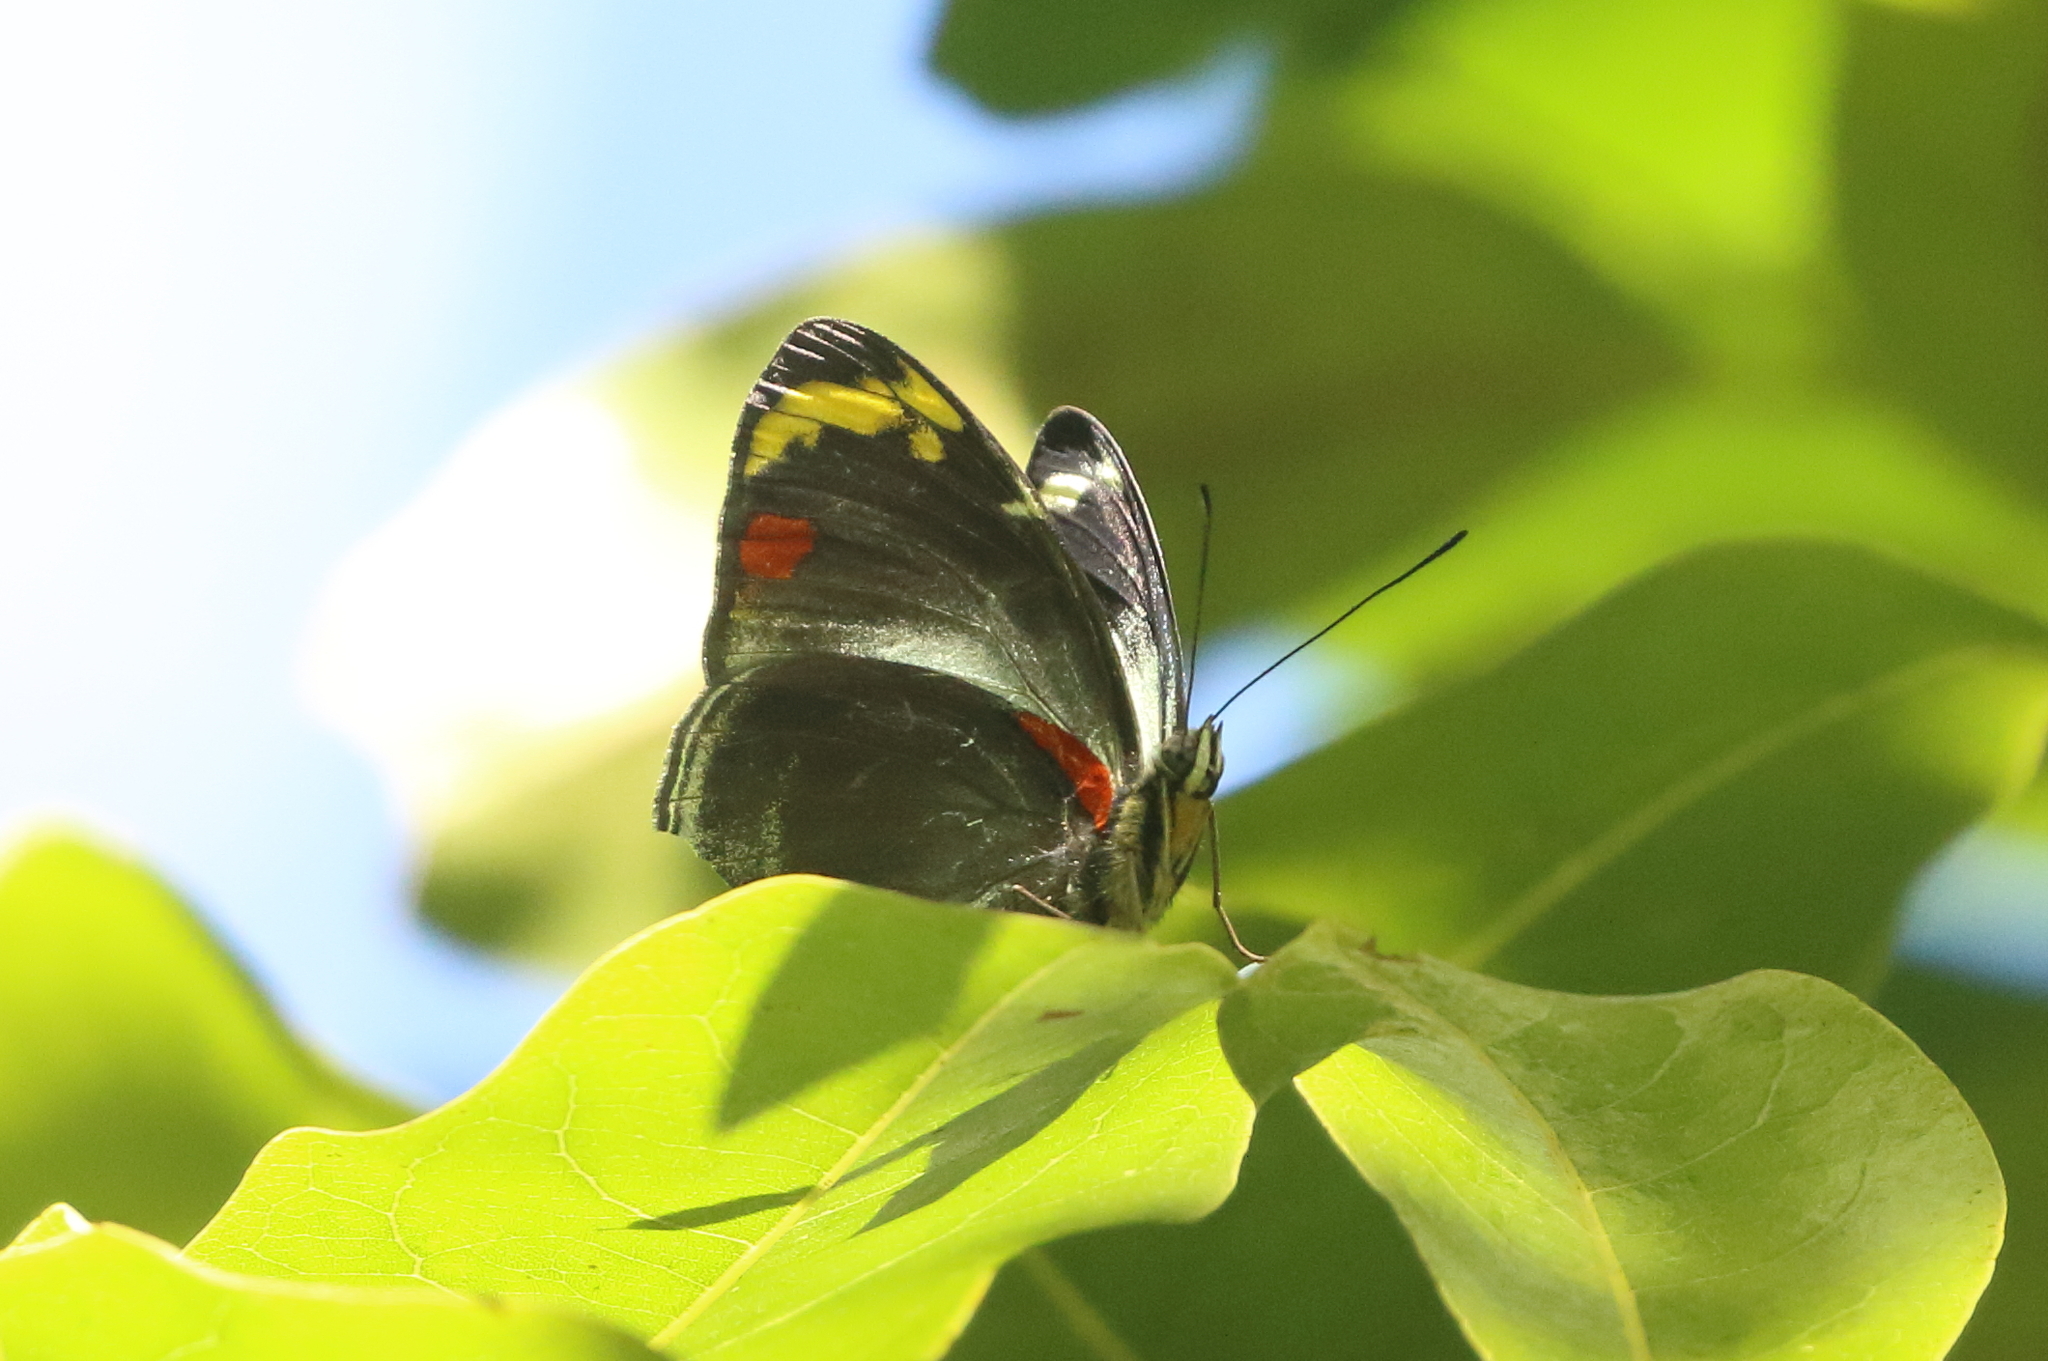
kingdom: Animalia
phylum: Arthropoda
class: Insecta
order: Lepidoptera
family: Nymphalidae
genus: Mynes
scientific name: Mynes geoffroyi
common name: Jezebel nymph
